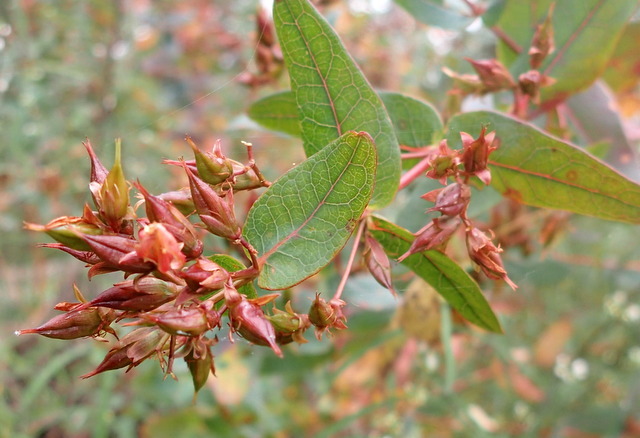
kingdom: Plantae
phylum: Tracheophyta
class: Magnoliopsida
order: Malpighiales
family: Hypericaceae
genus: Triadenum
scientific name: Triadenum virginicum
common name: Marsh st. john's-wort
